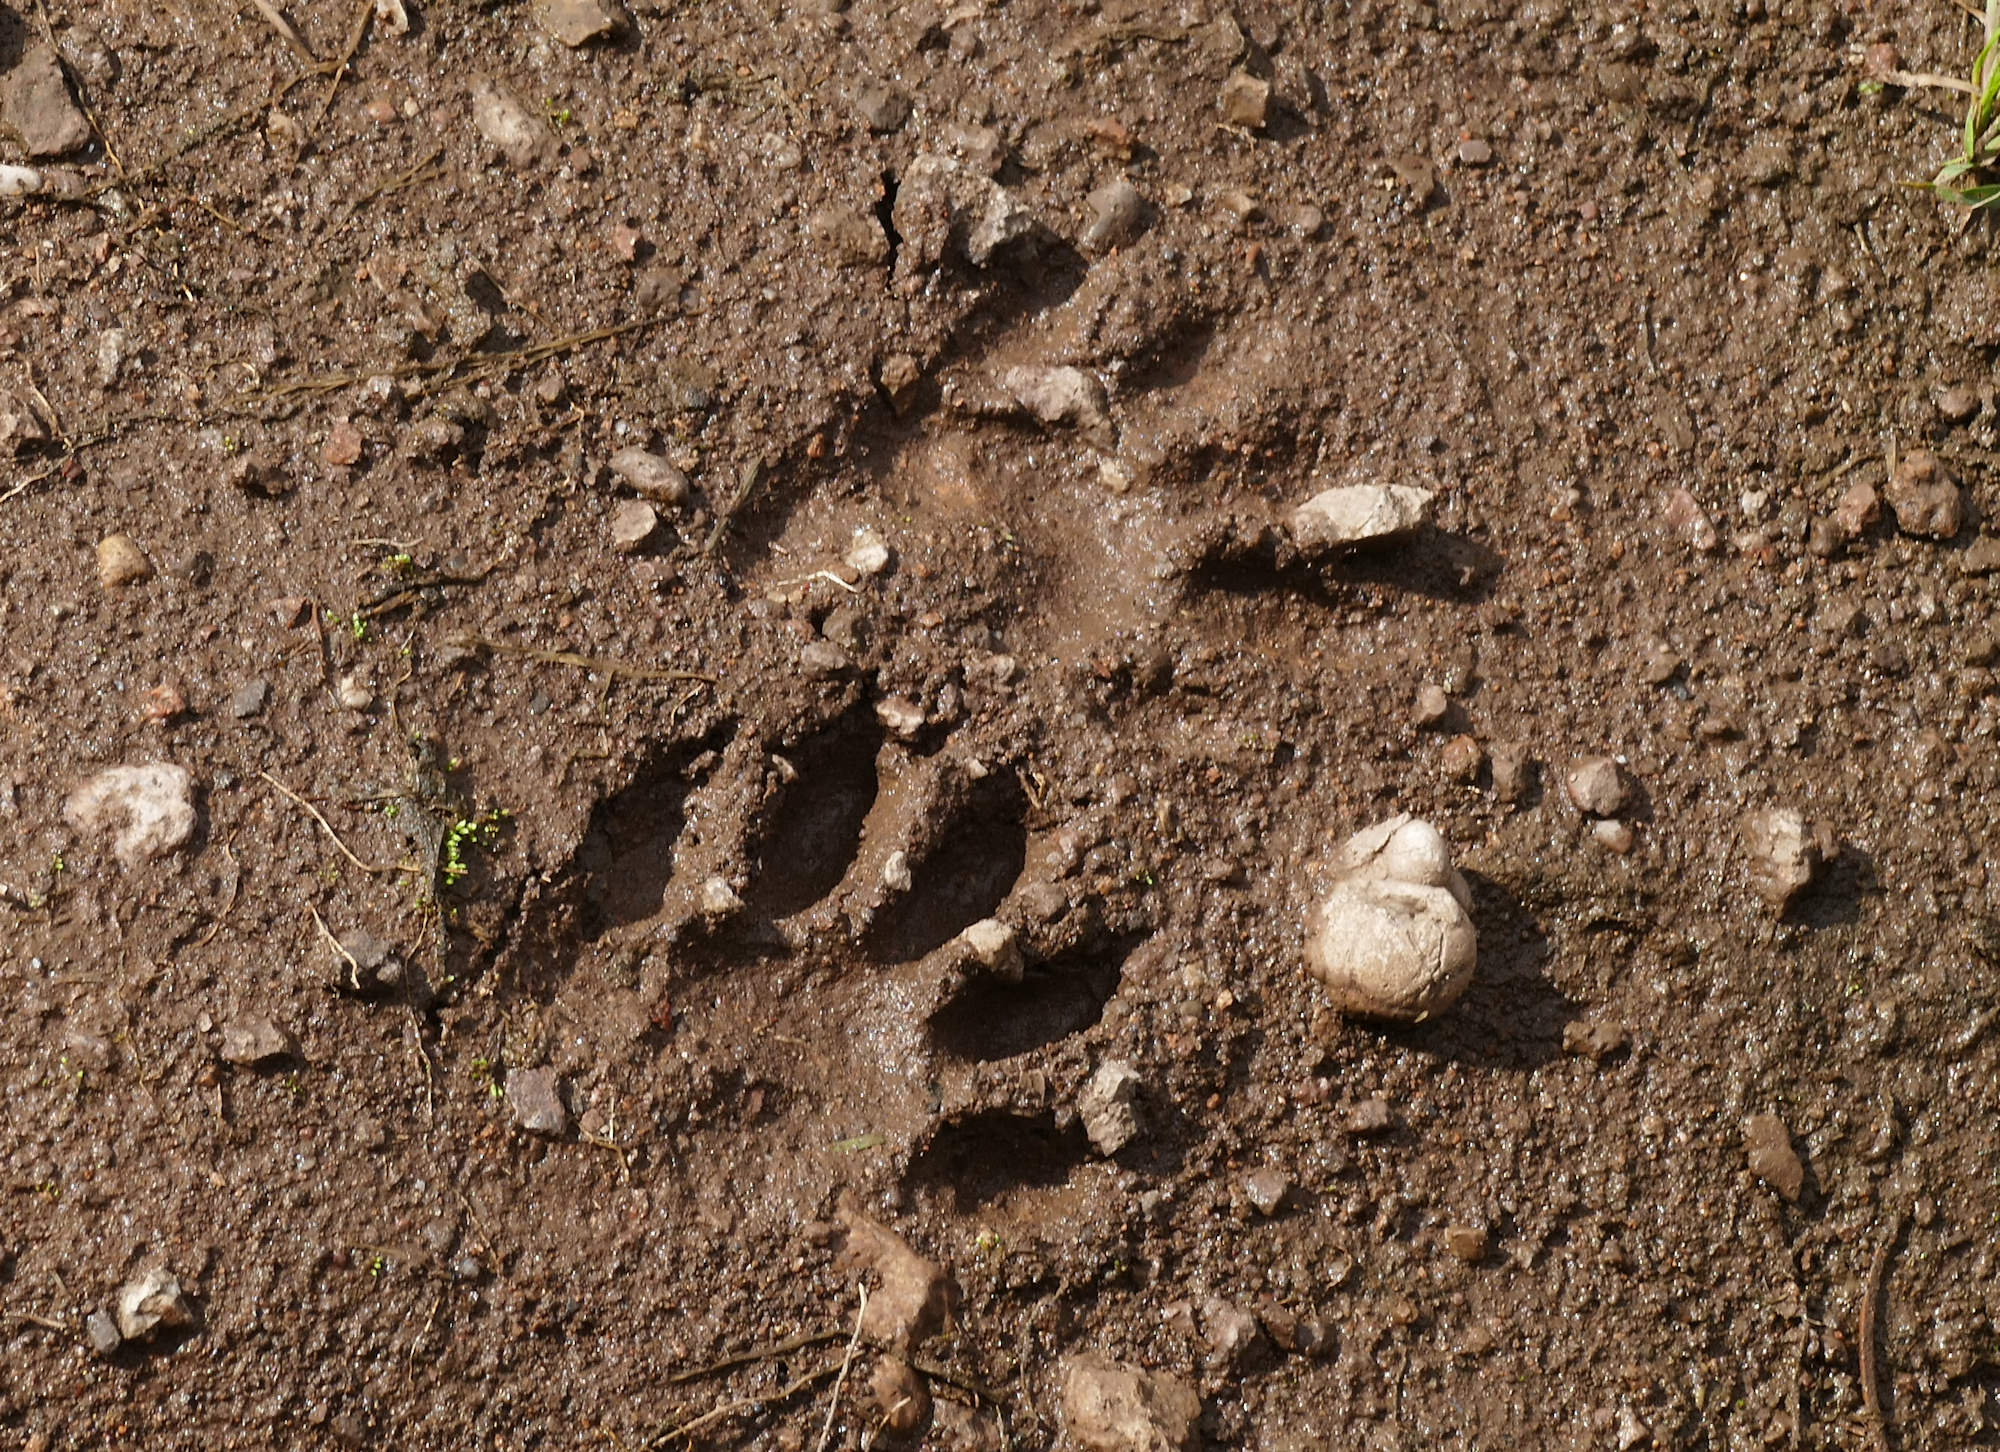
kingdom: Animalia
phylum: Chordata
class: Mammalia
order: Carnivora
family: Procyonidae
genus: Procyon
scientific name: Procyon lotor
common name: Raccoon
